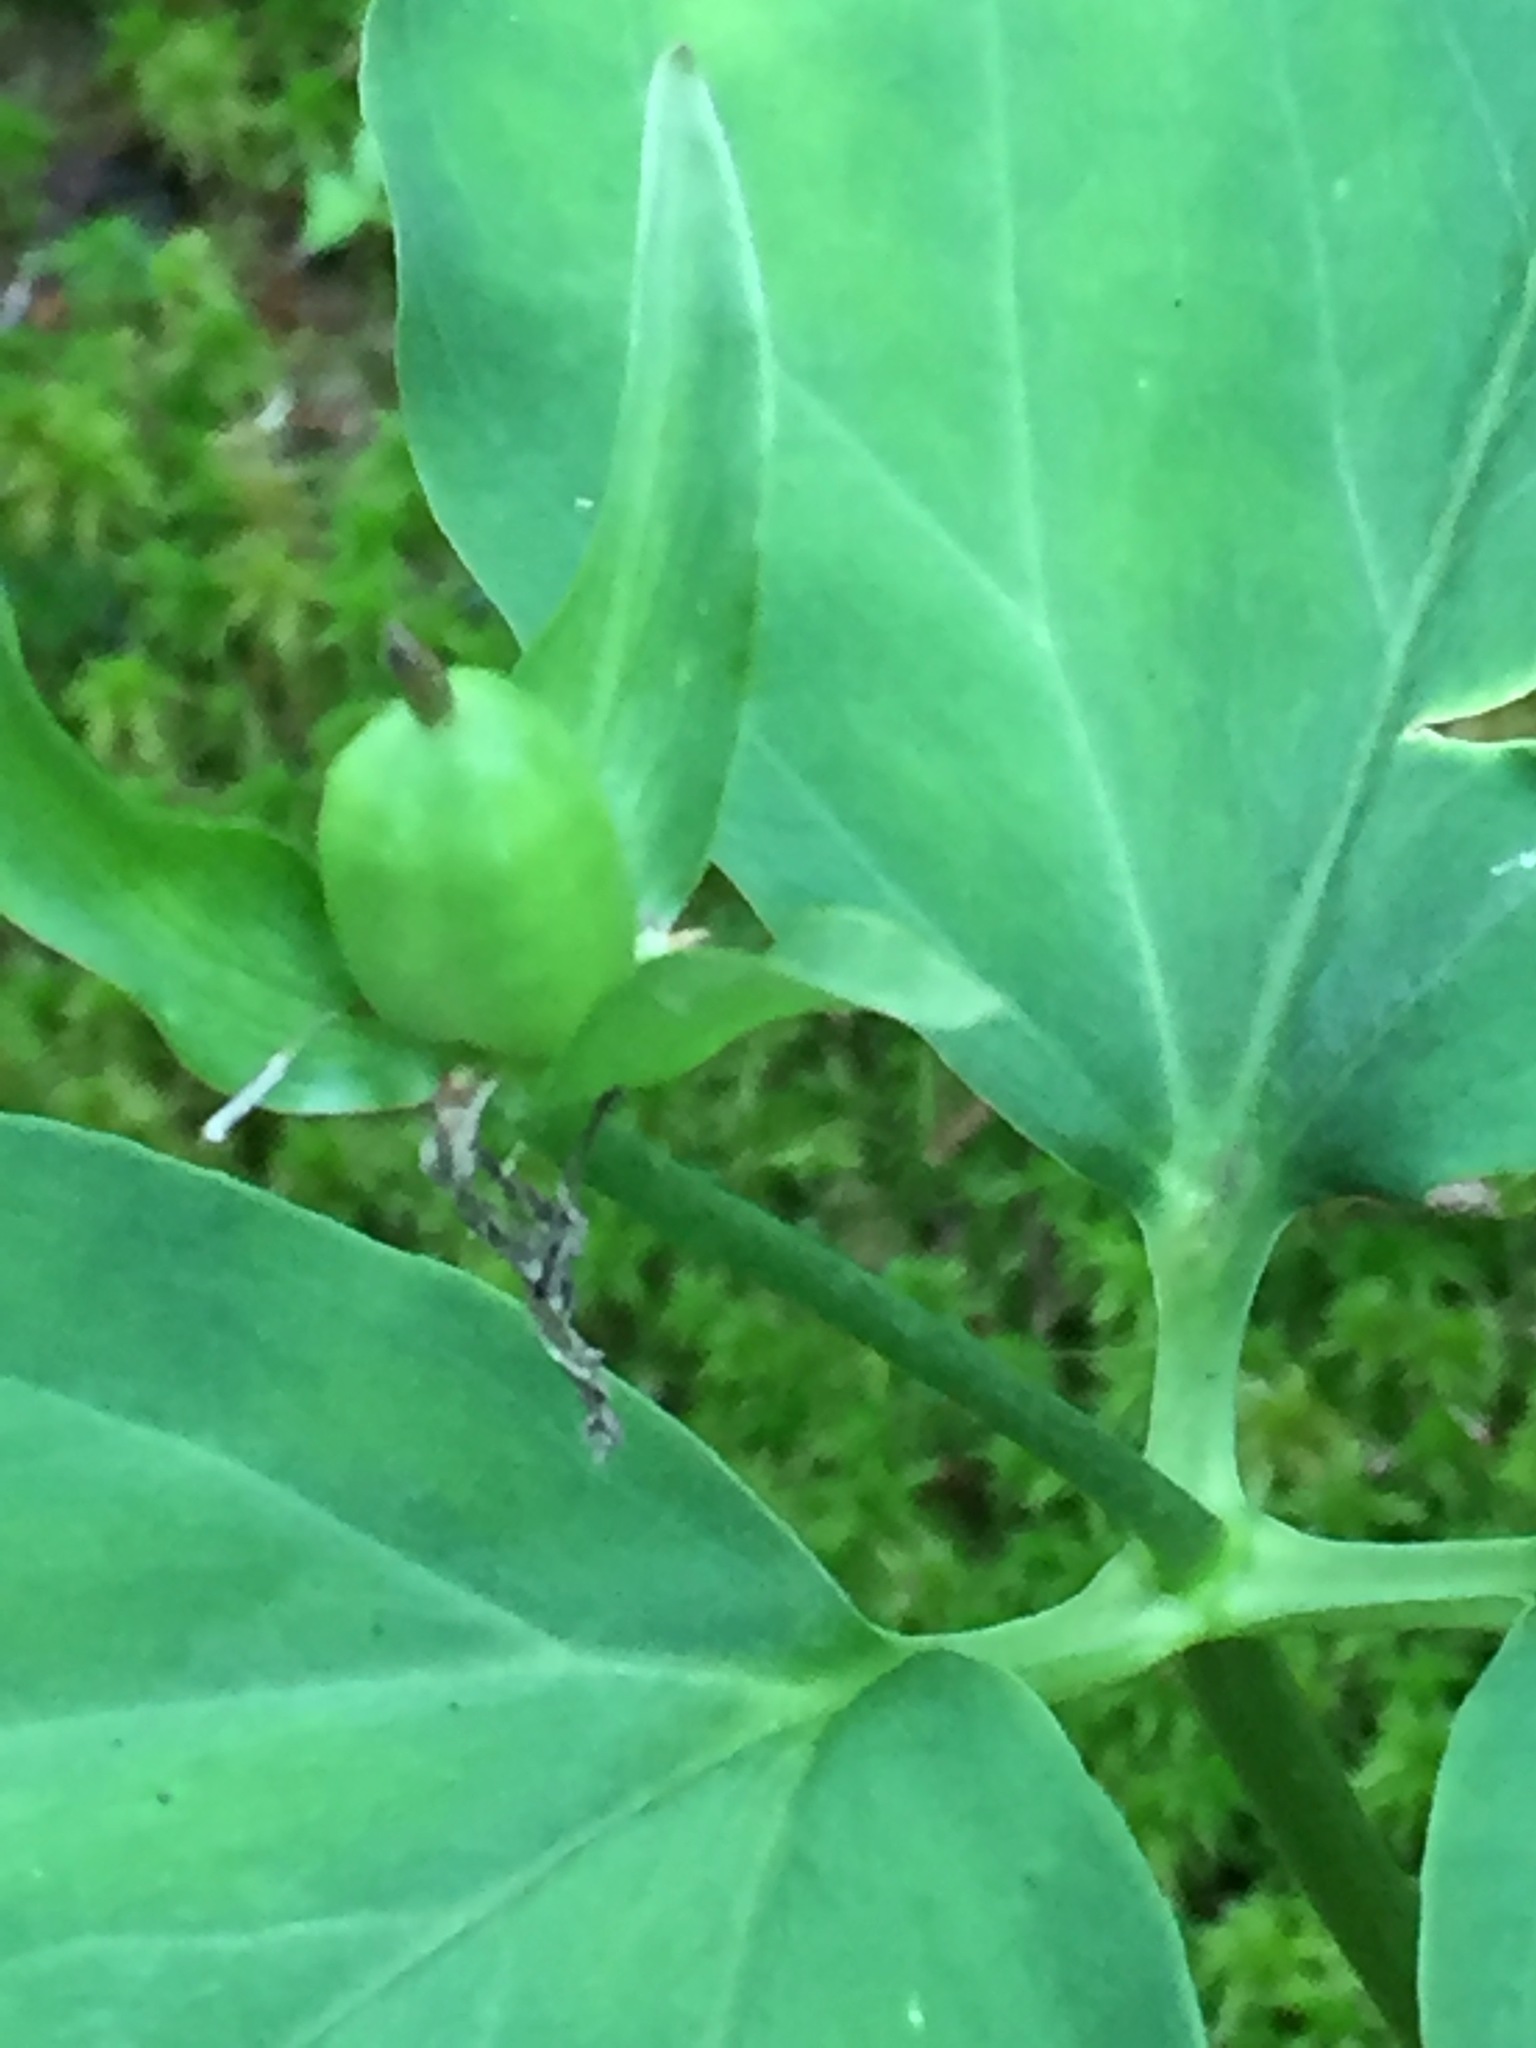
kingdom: Plantae
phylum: Tracheophyta
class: Liliopsida
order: Liliales
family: Melanthiaceae
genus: Trillium
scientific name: Trillium undulatum
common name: Paint trillium
